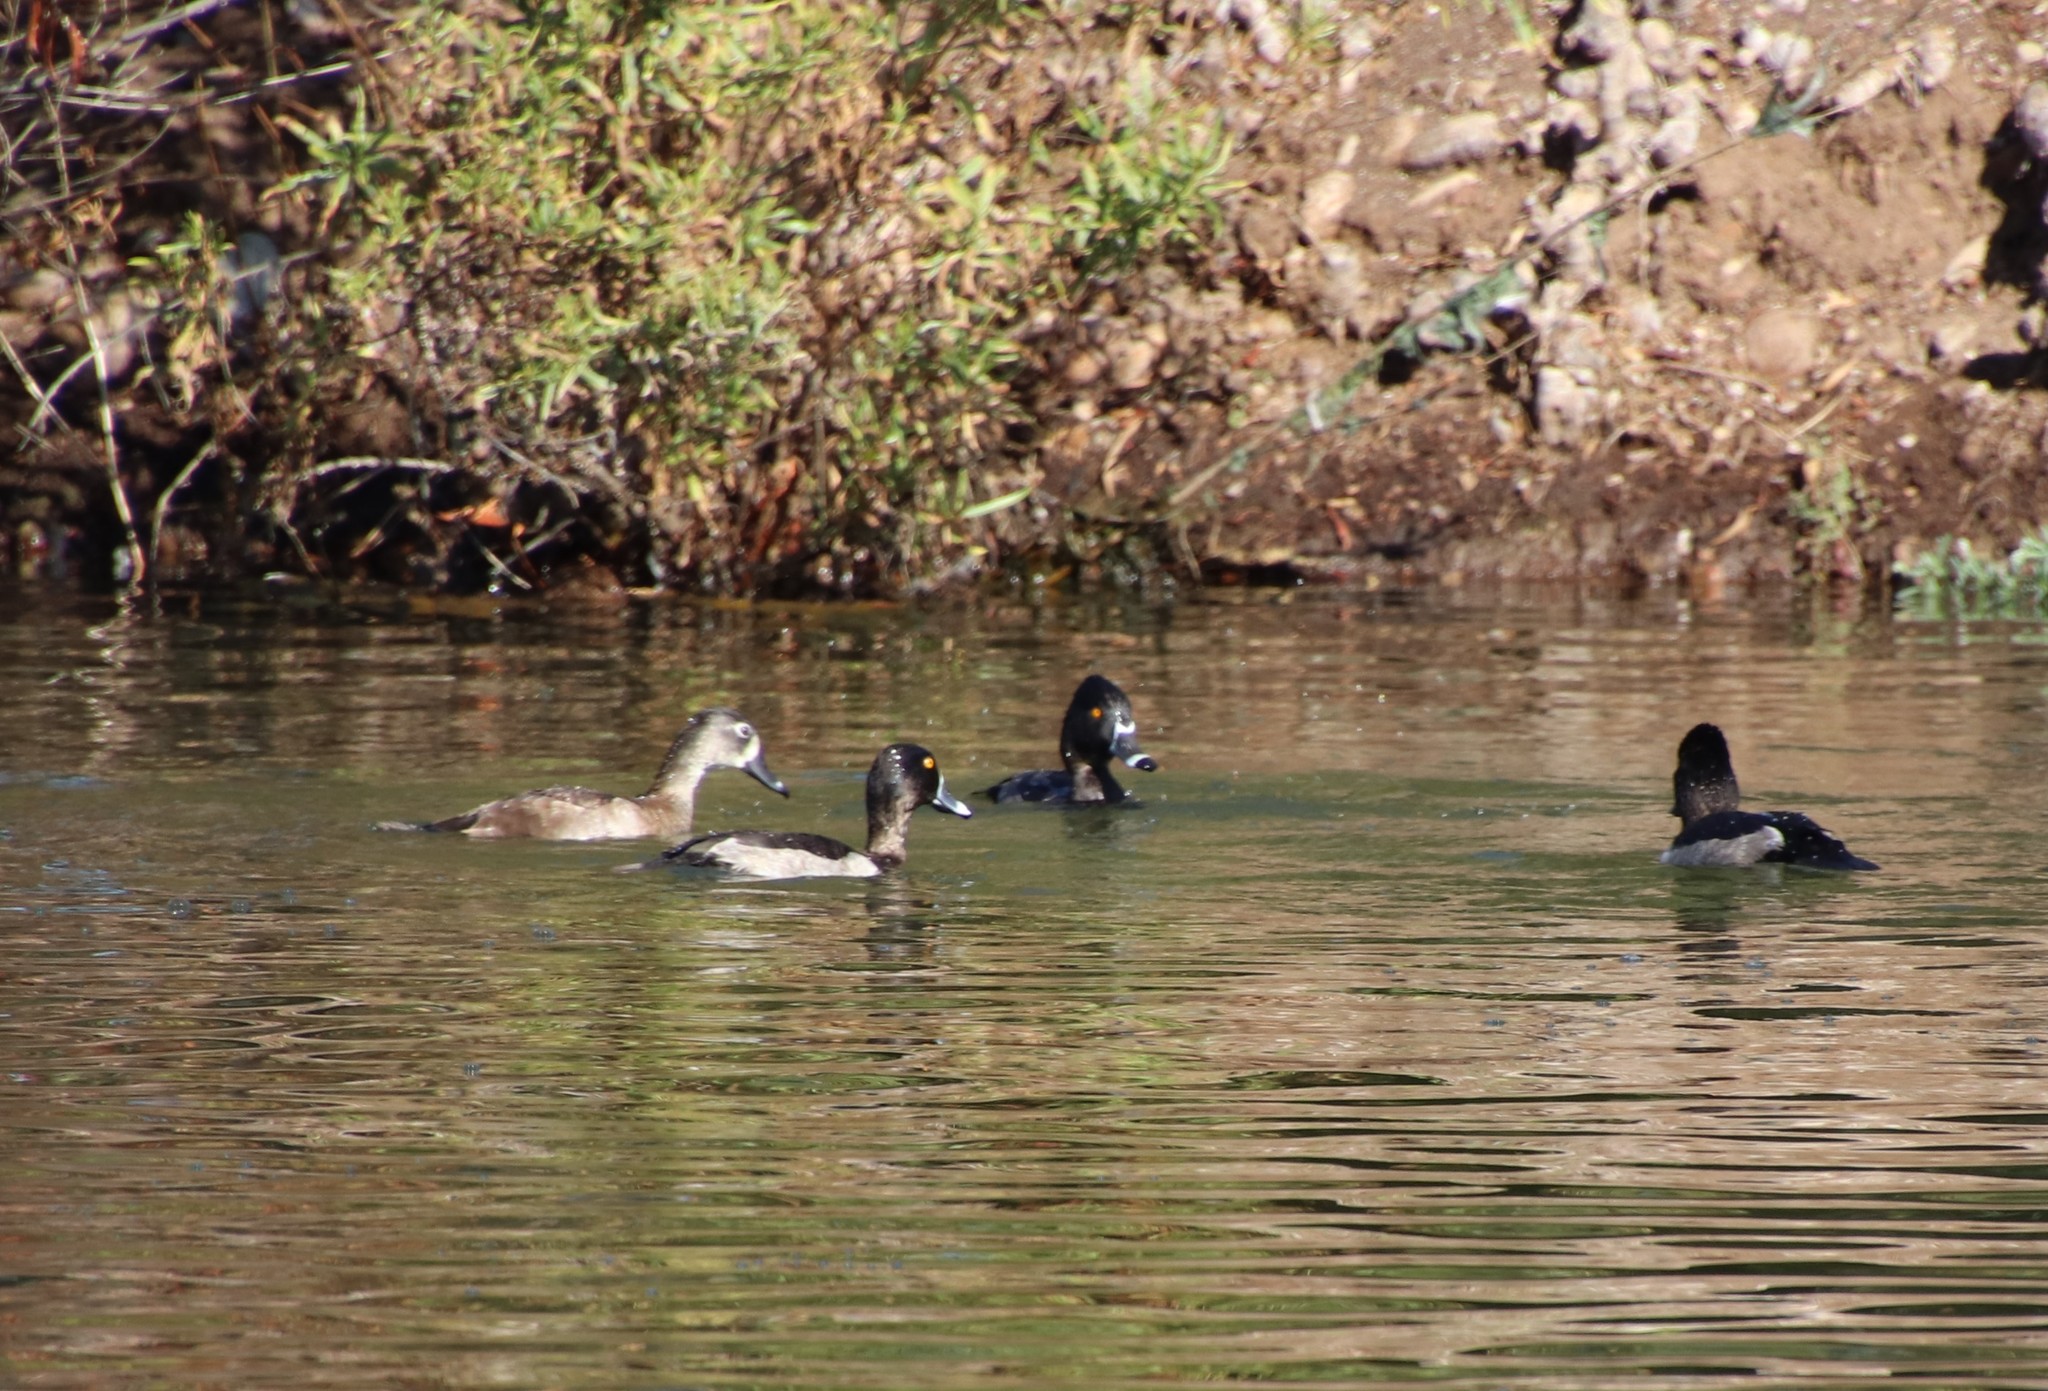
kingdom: Animalia
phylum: Chordata
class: Aves
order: Anseriformes
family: Anatidae
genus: Aythya
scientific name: Aythya collaris
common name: Ring-necked duck
